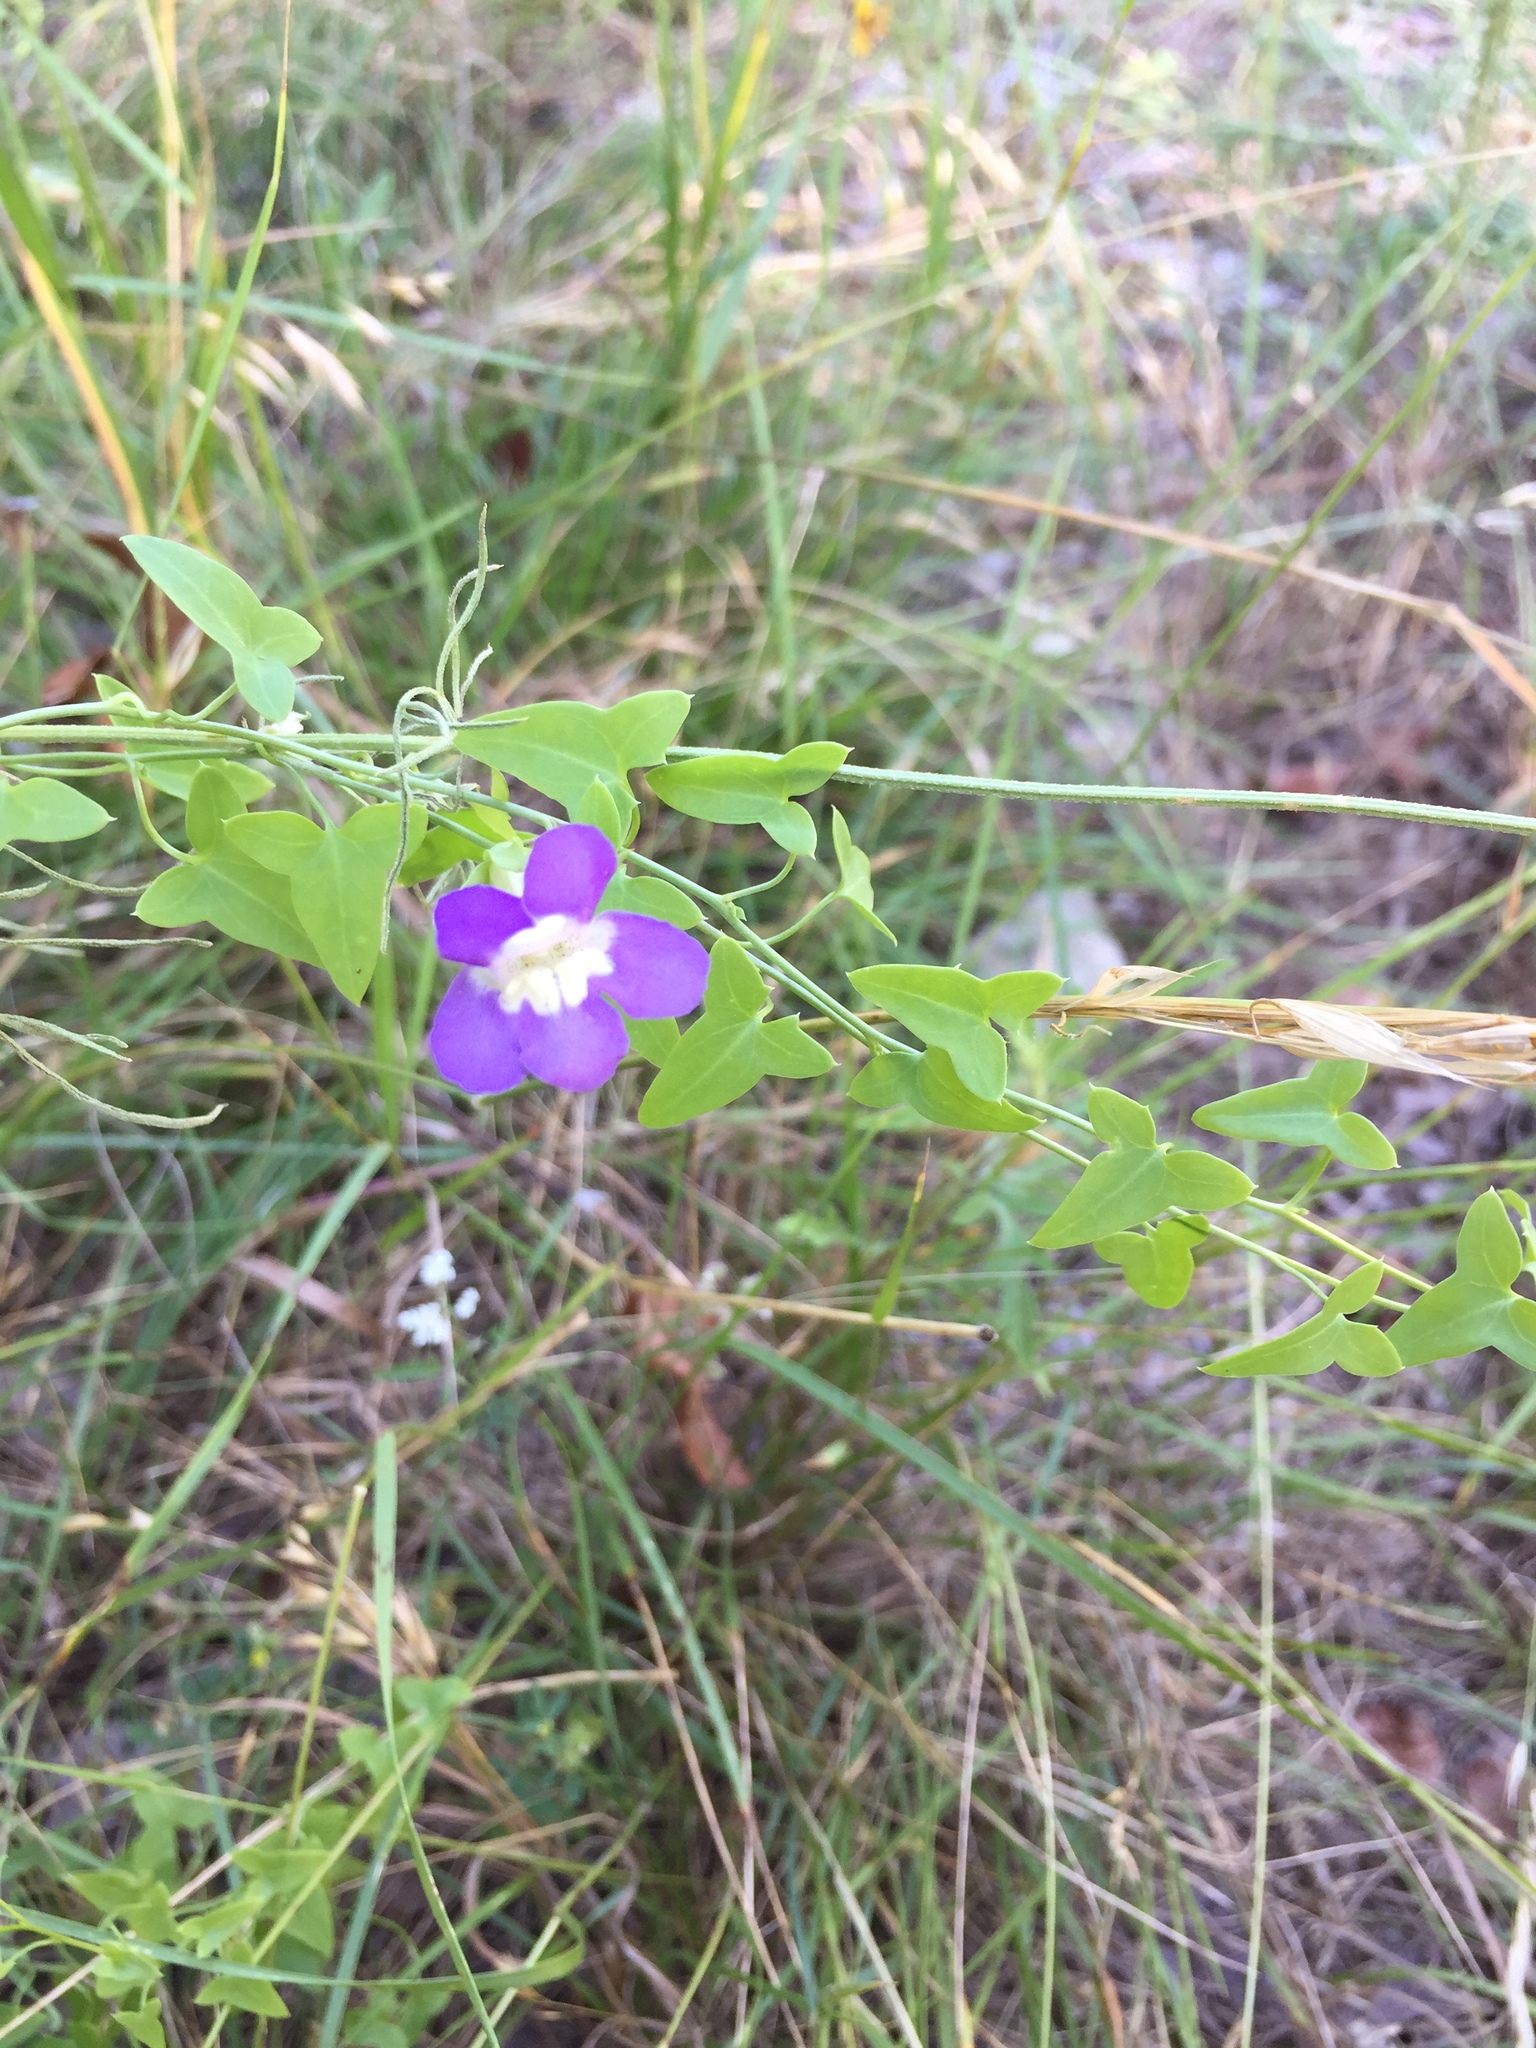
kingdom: Plantae
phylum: Tracheophyta
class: Magnoliopsida
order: Lamiales
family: Plantaginaceae
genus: Maurandella
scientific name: Maurandella antirrhiniflora
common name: Violet twining-snapdragon
